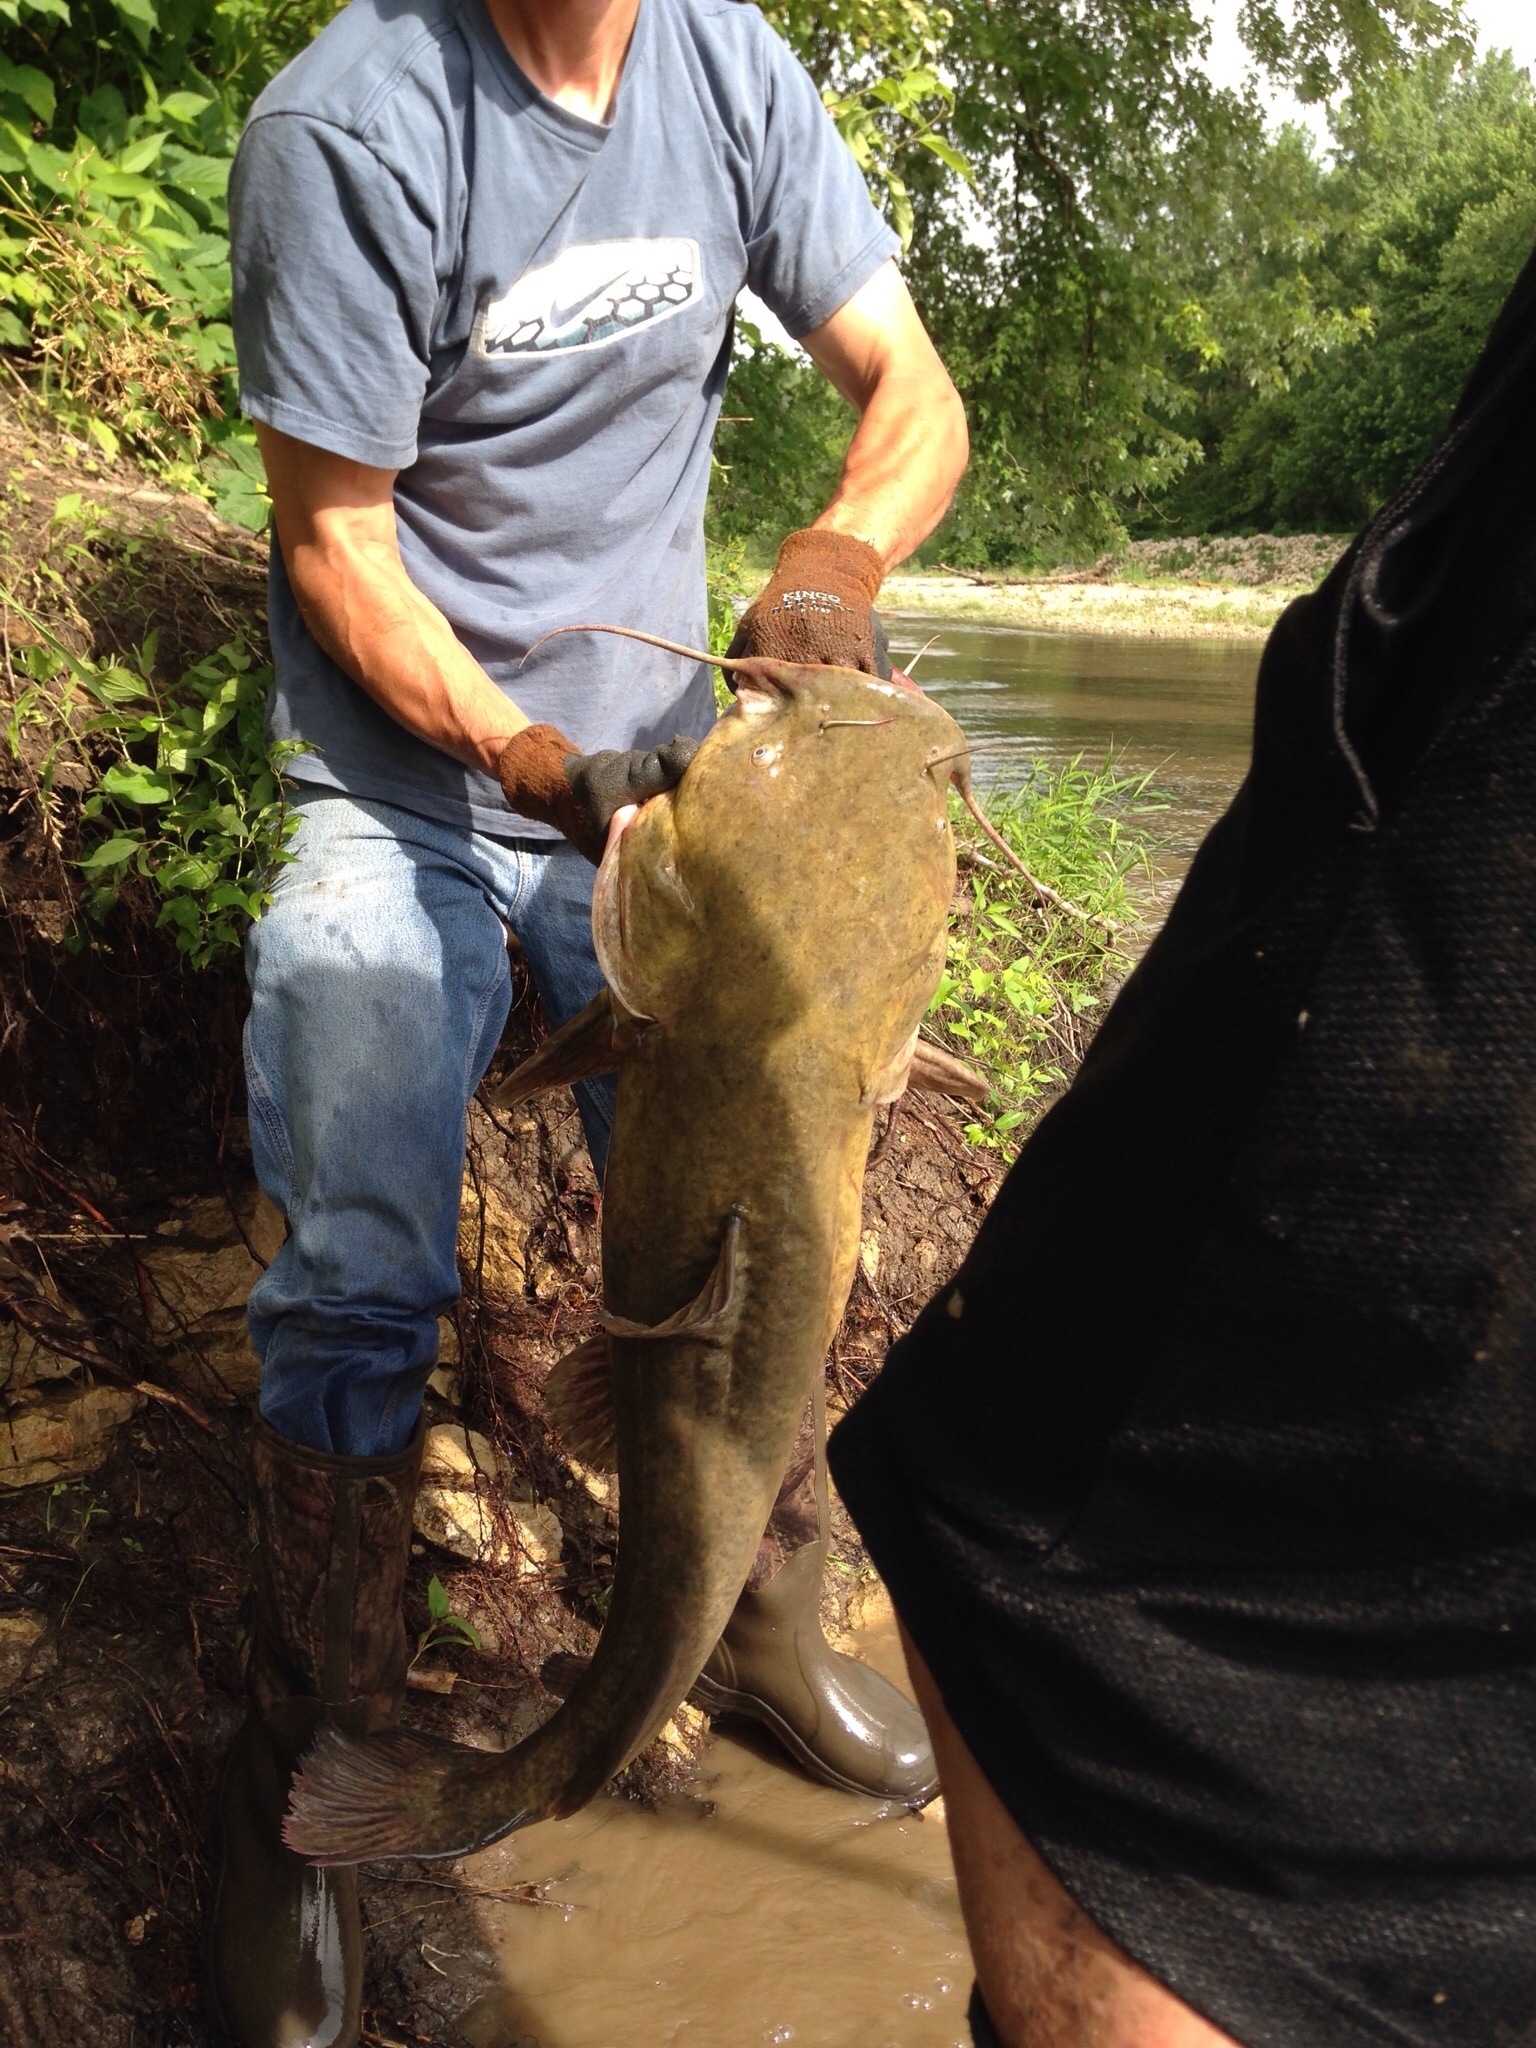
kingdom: Animalia
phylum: Chordata
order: Siluriformes
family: Ictaluridae
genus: Pylodictis
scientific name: Pylodictis olivaris
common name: Flathead catfish
